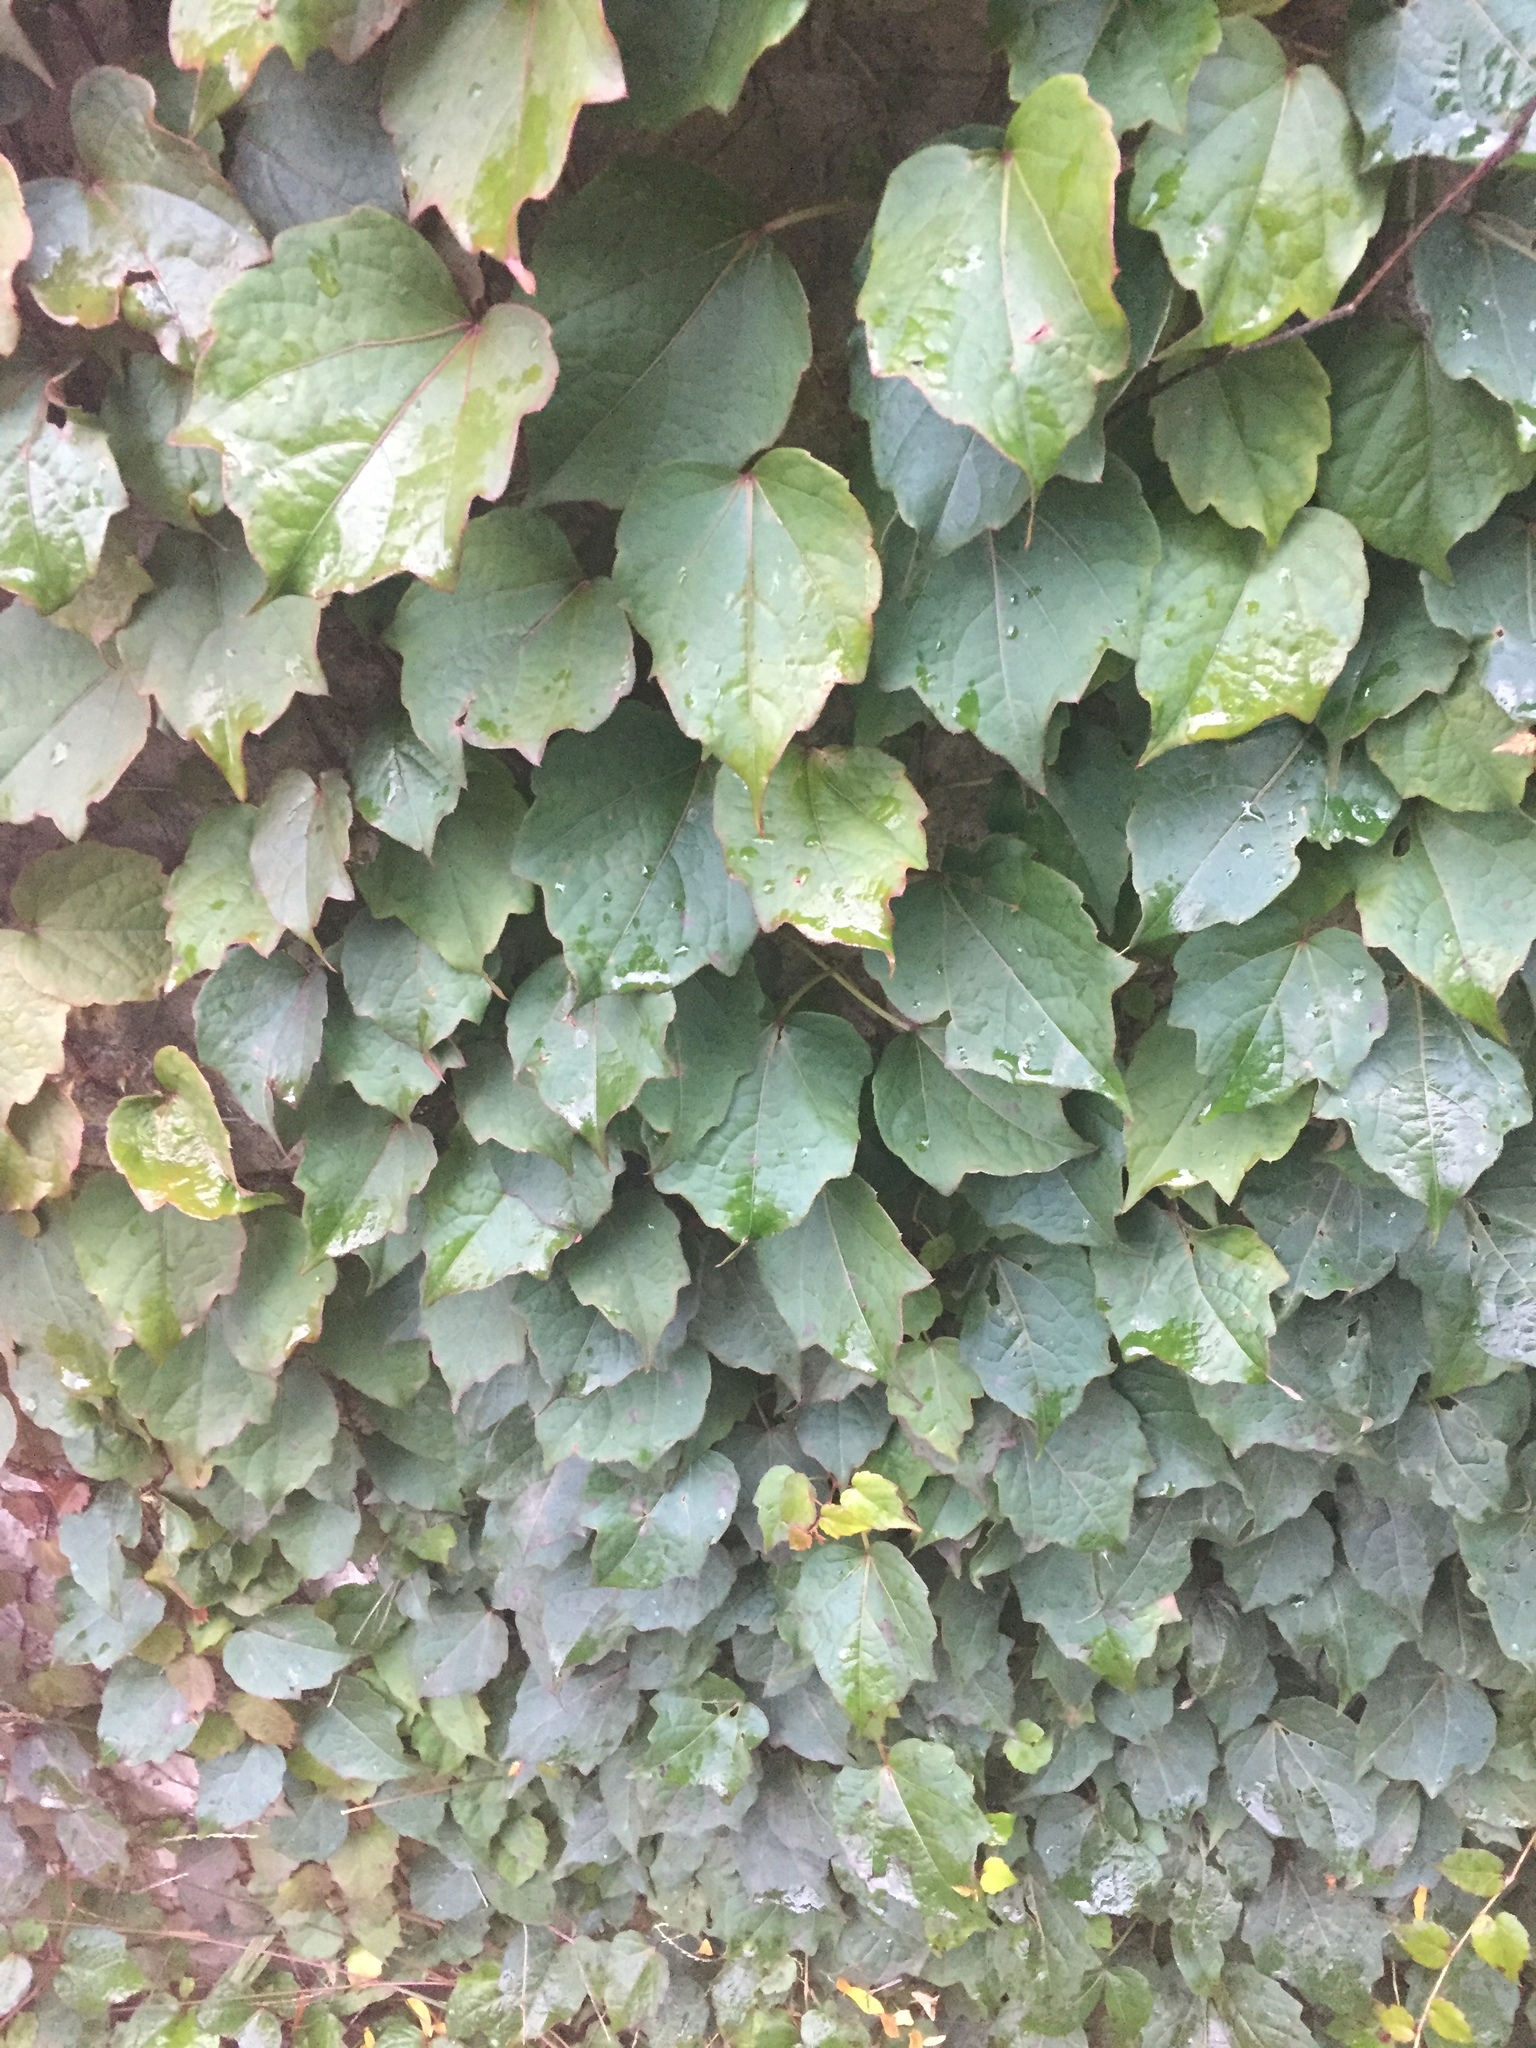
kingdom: Plantae
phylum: Tracheophyta
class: Magnoliopsida
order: Vitales
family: Vitaceae
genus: Parthenocissus
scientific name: Parthenocissus tricuspidata
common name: Boston ivy
